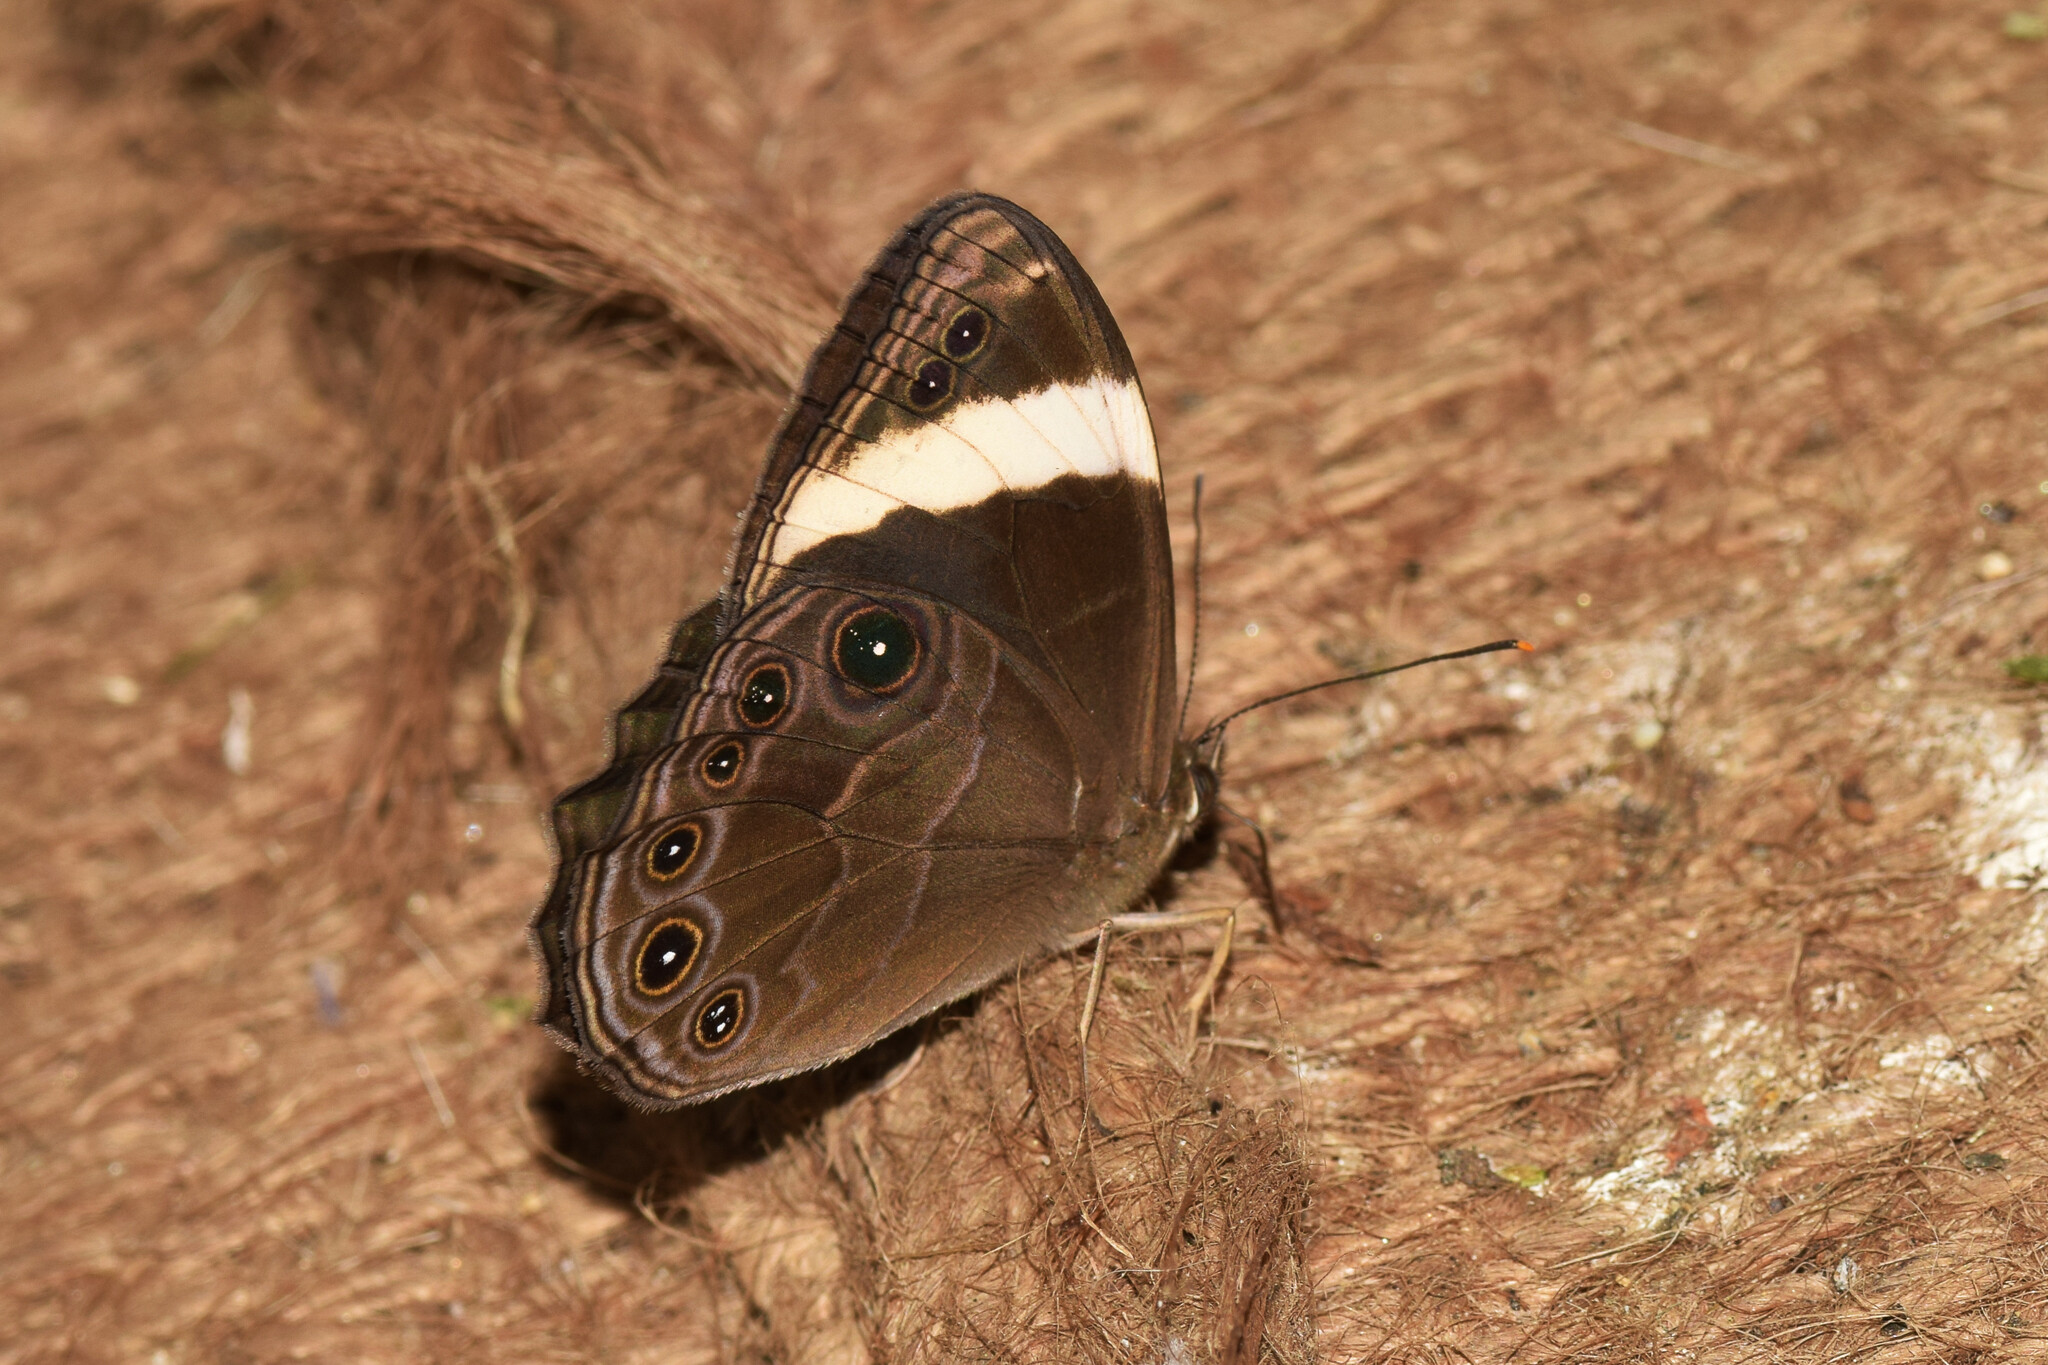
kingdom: Animalia
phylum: Arthropoda
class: Insecta
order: Lepidoptera
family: Nymphalidae
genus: Lethe
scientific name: Lethe verma
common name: Straight-banded treebrown
